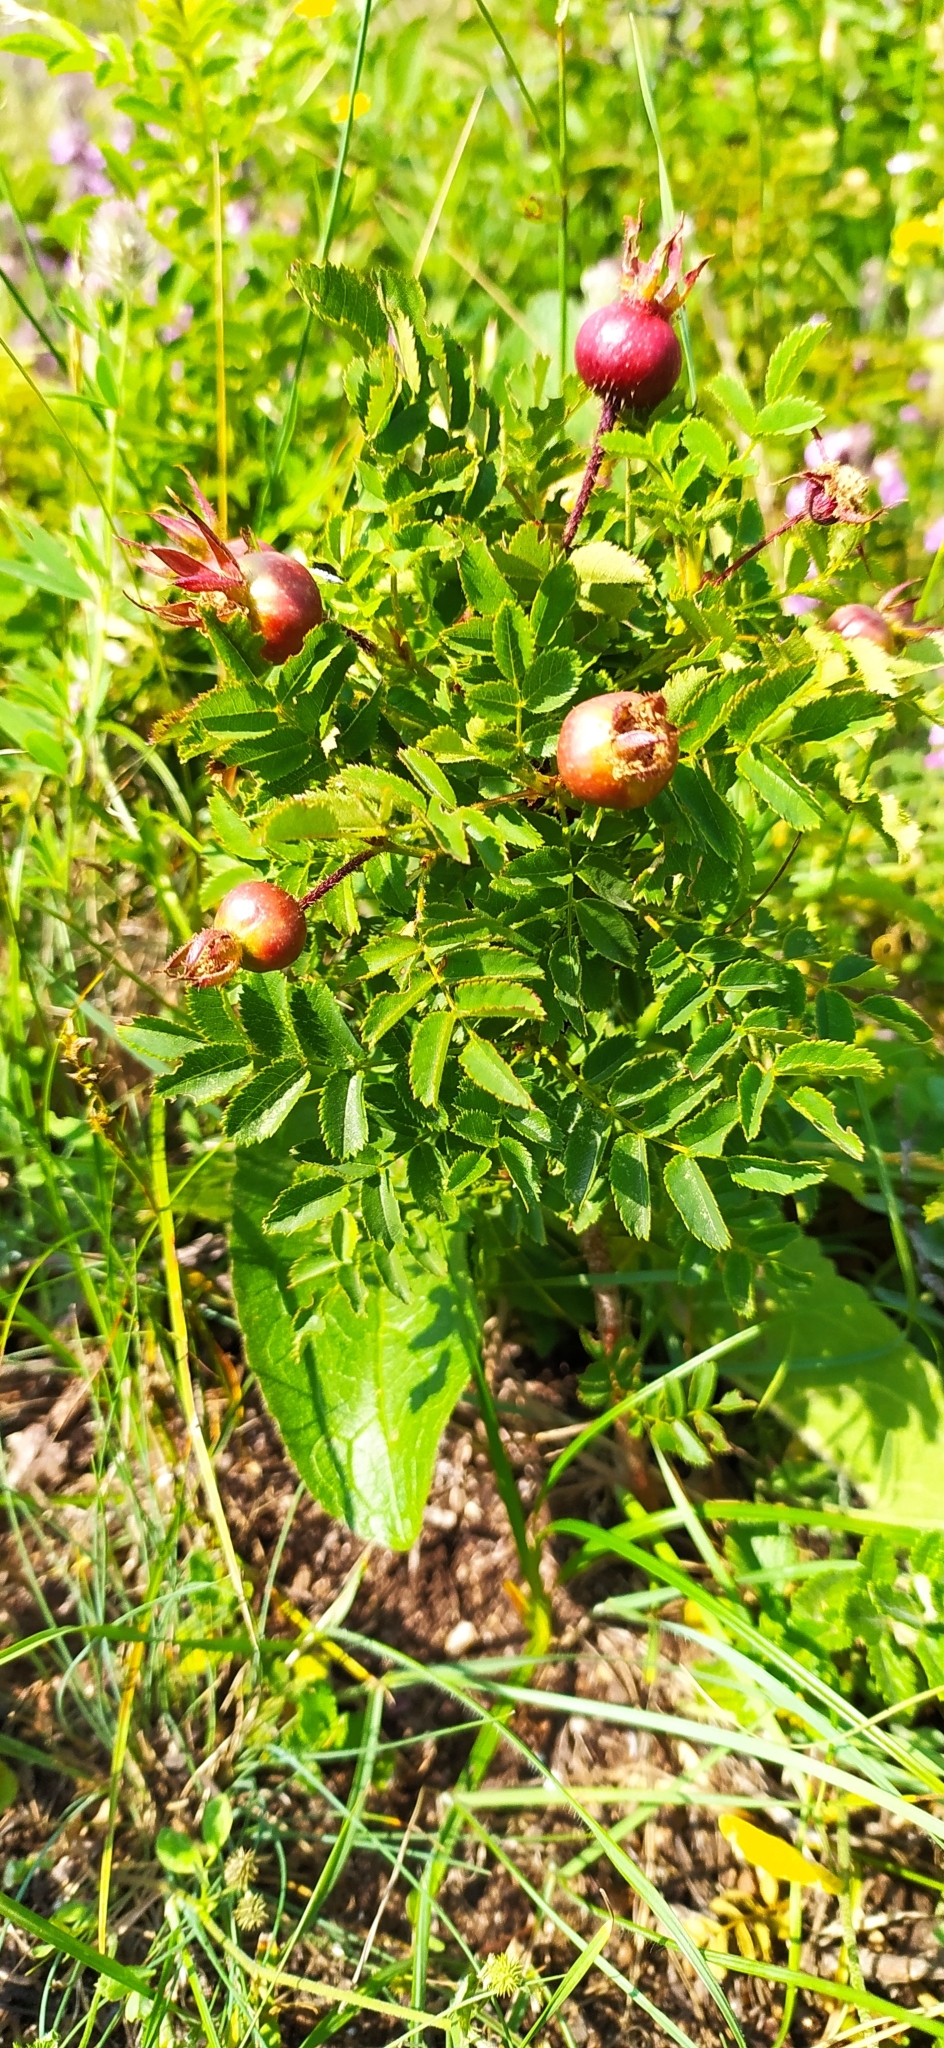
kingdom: Plantae
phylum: Tracheophyta
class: Magnoliopsida
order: Rosales
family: Rosaceae
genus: Rosa
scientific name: Rosa spinosissima
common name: Burnet rose
